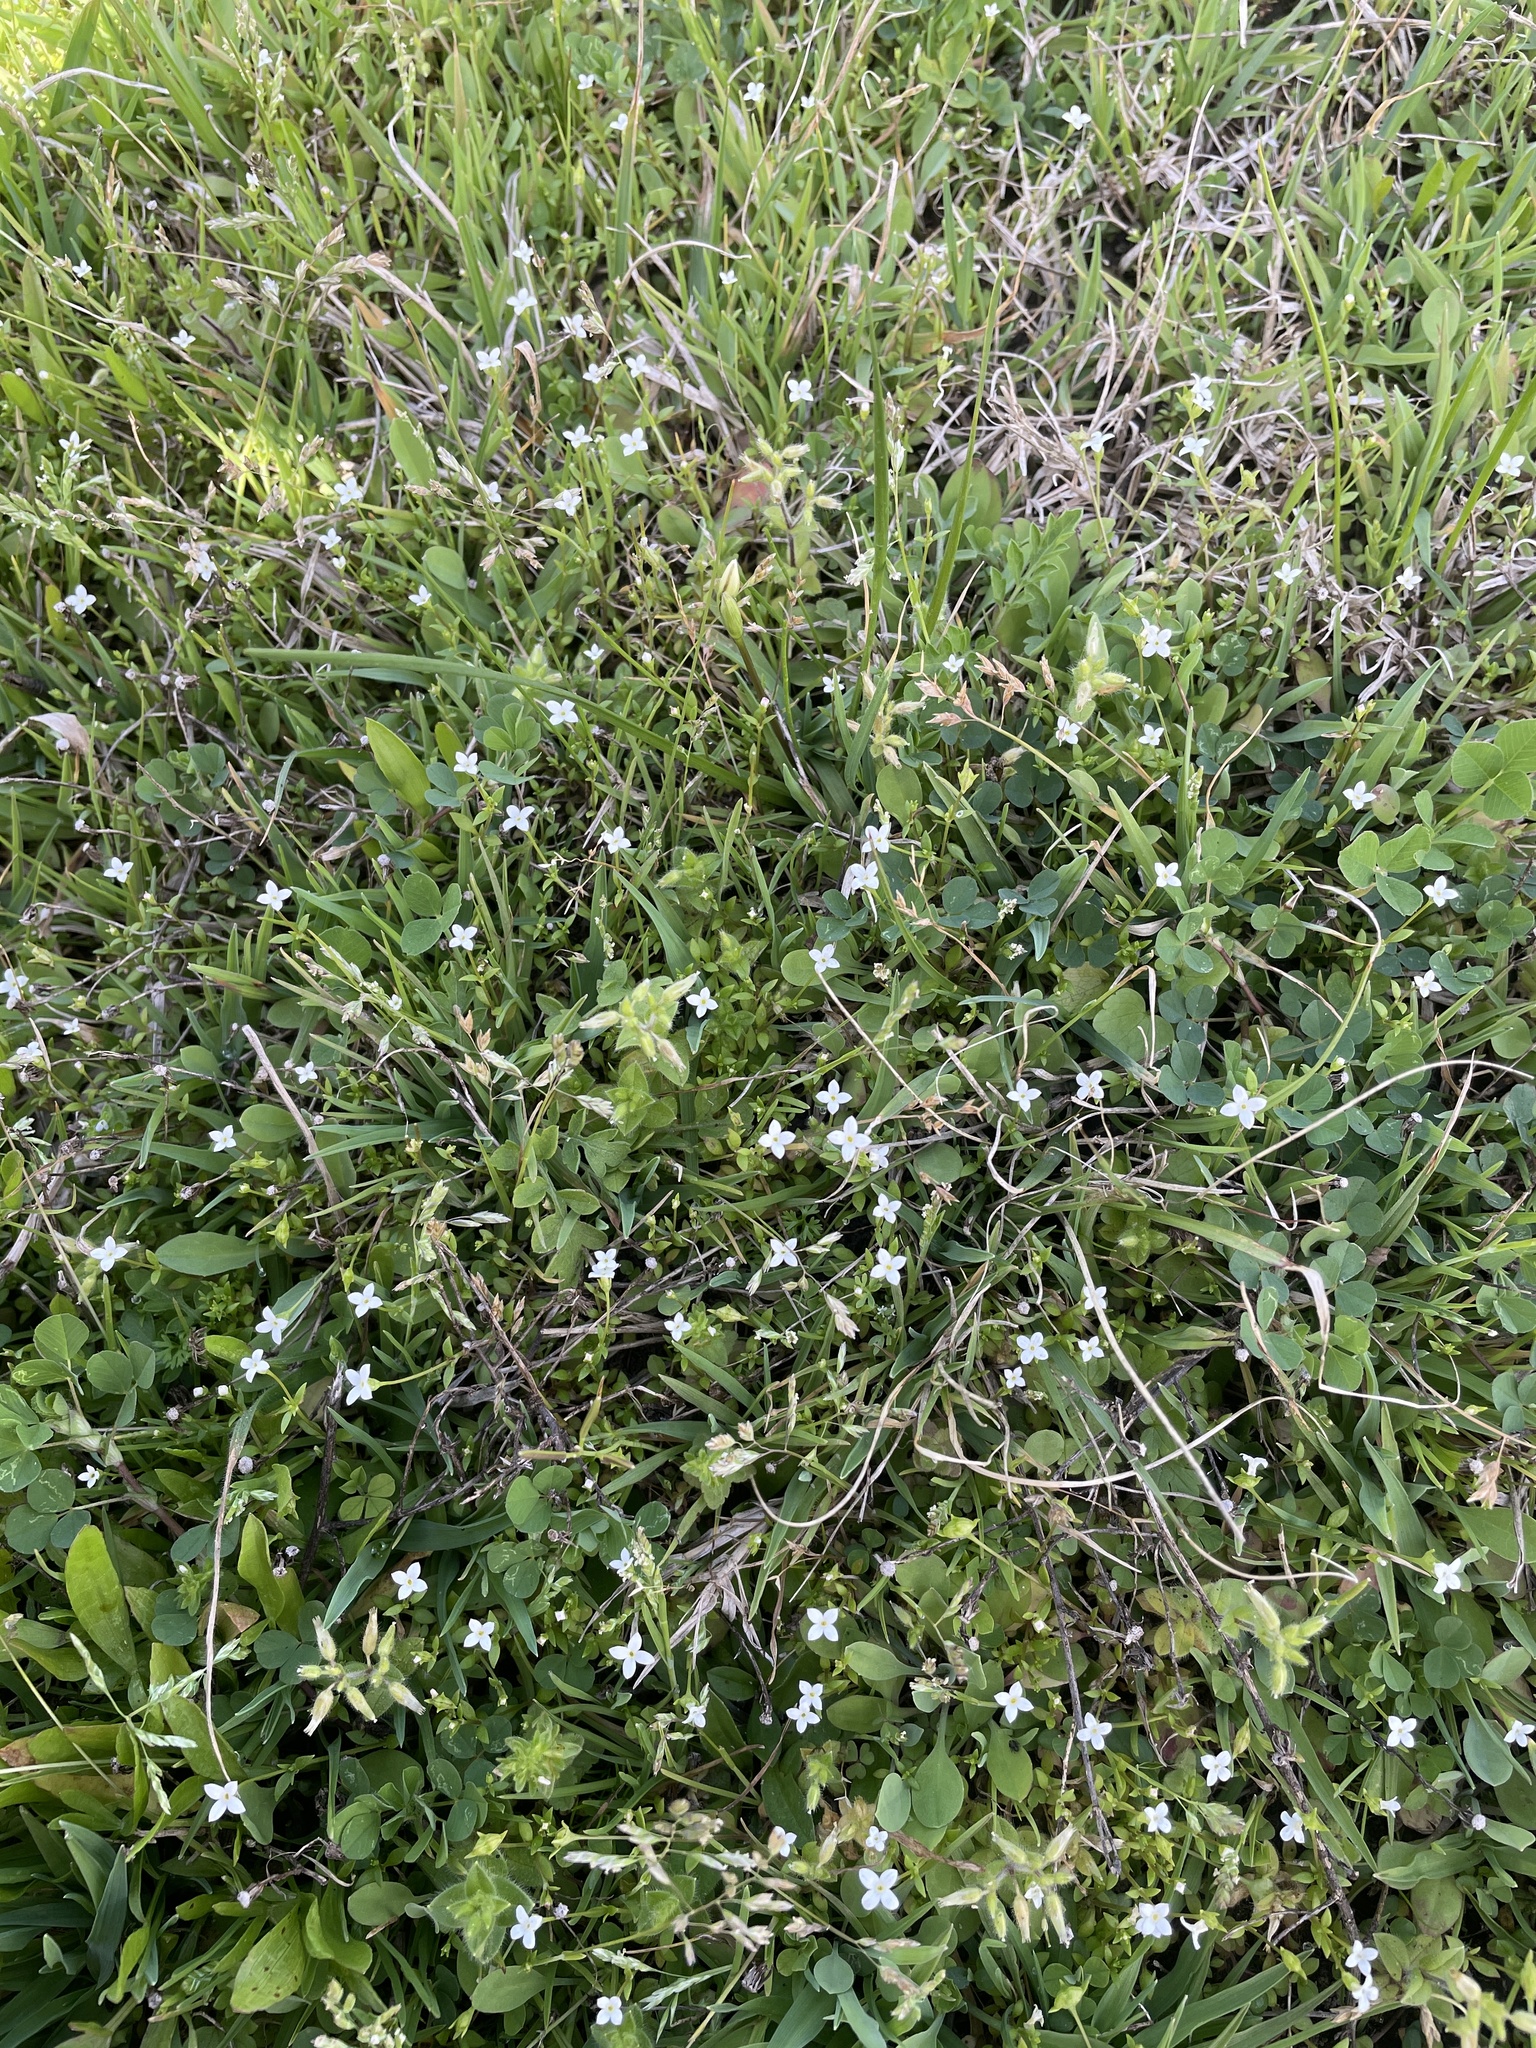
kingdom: Plantae
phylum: Tracheophyta
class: Magnoliopsida
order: Gentianales
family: Rubiaceae
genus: Houstonia
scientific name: Houstonia micrantha
